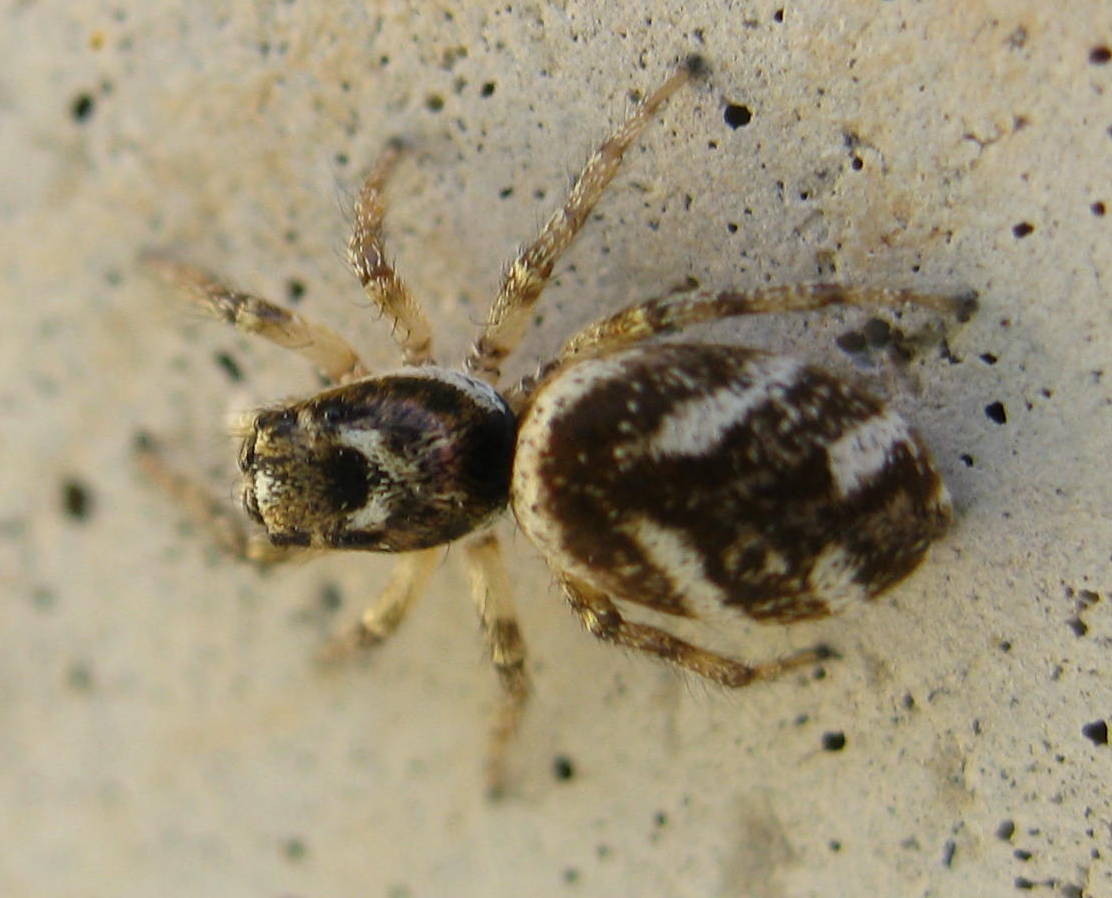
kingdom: Animalia
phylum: Arthropoda
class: Arachnida
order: Araneae
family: Salticidae
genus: Salticus
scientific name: Salticus scenicus
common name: Zebra jumper
